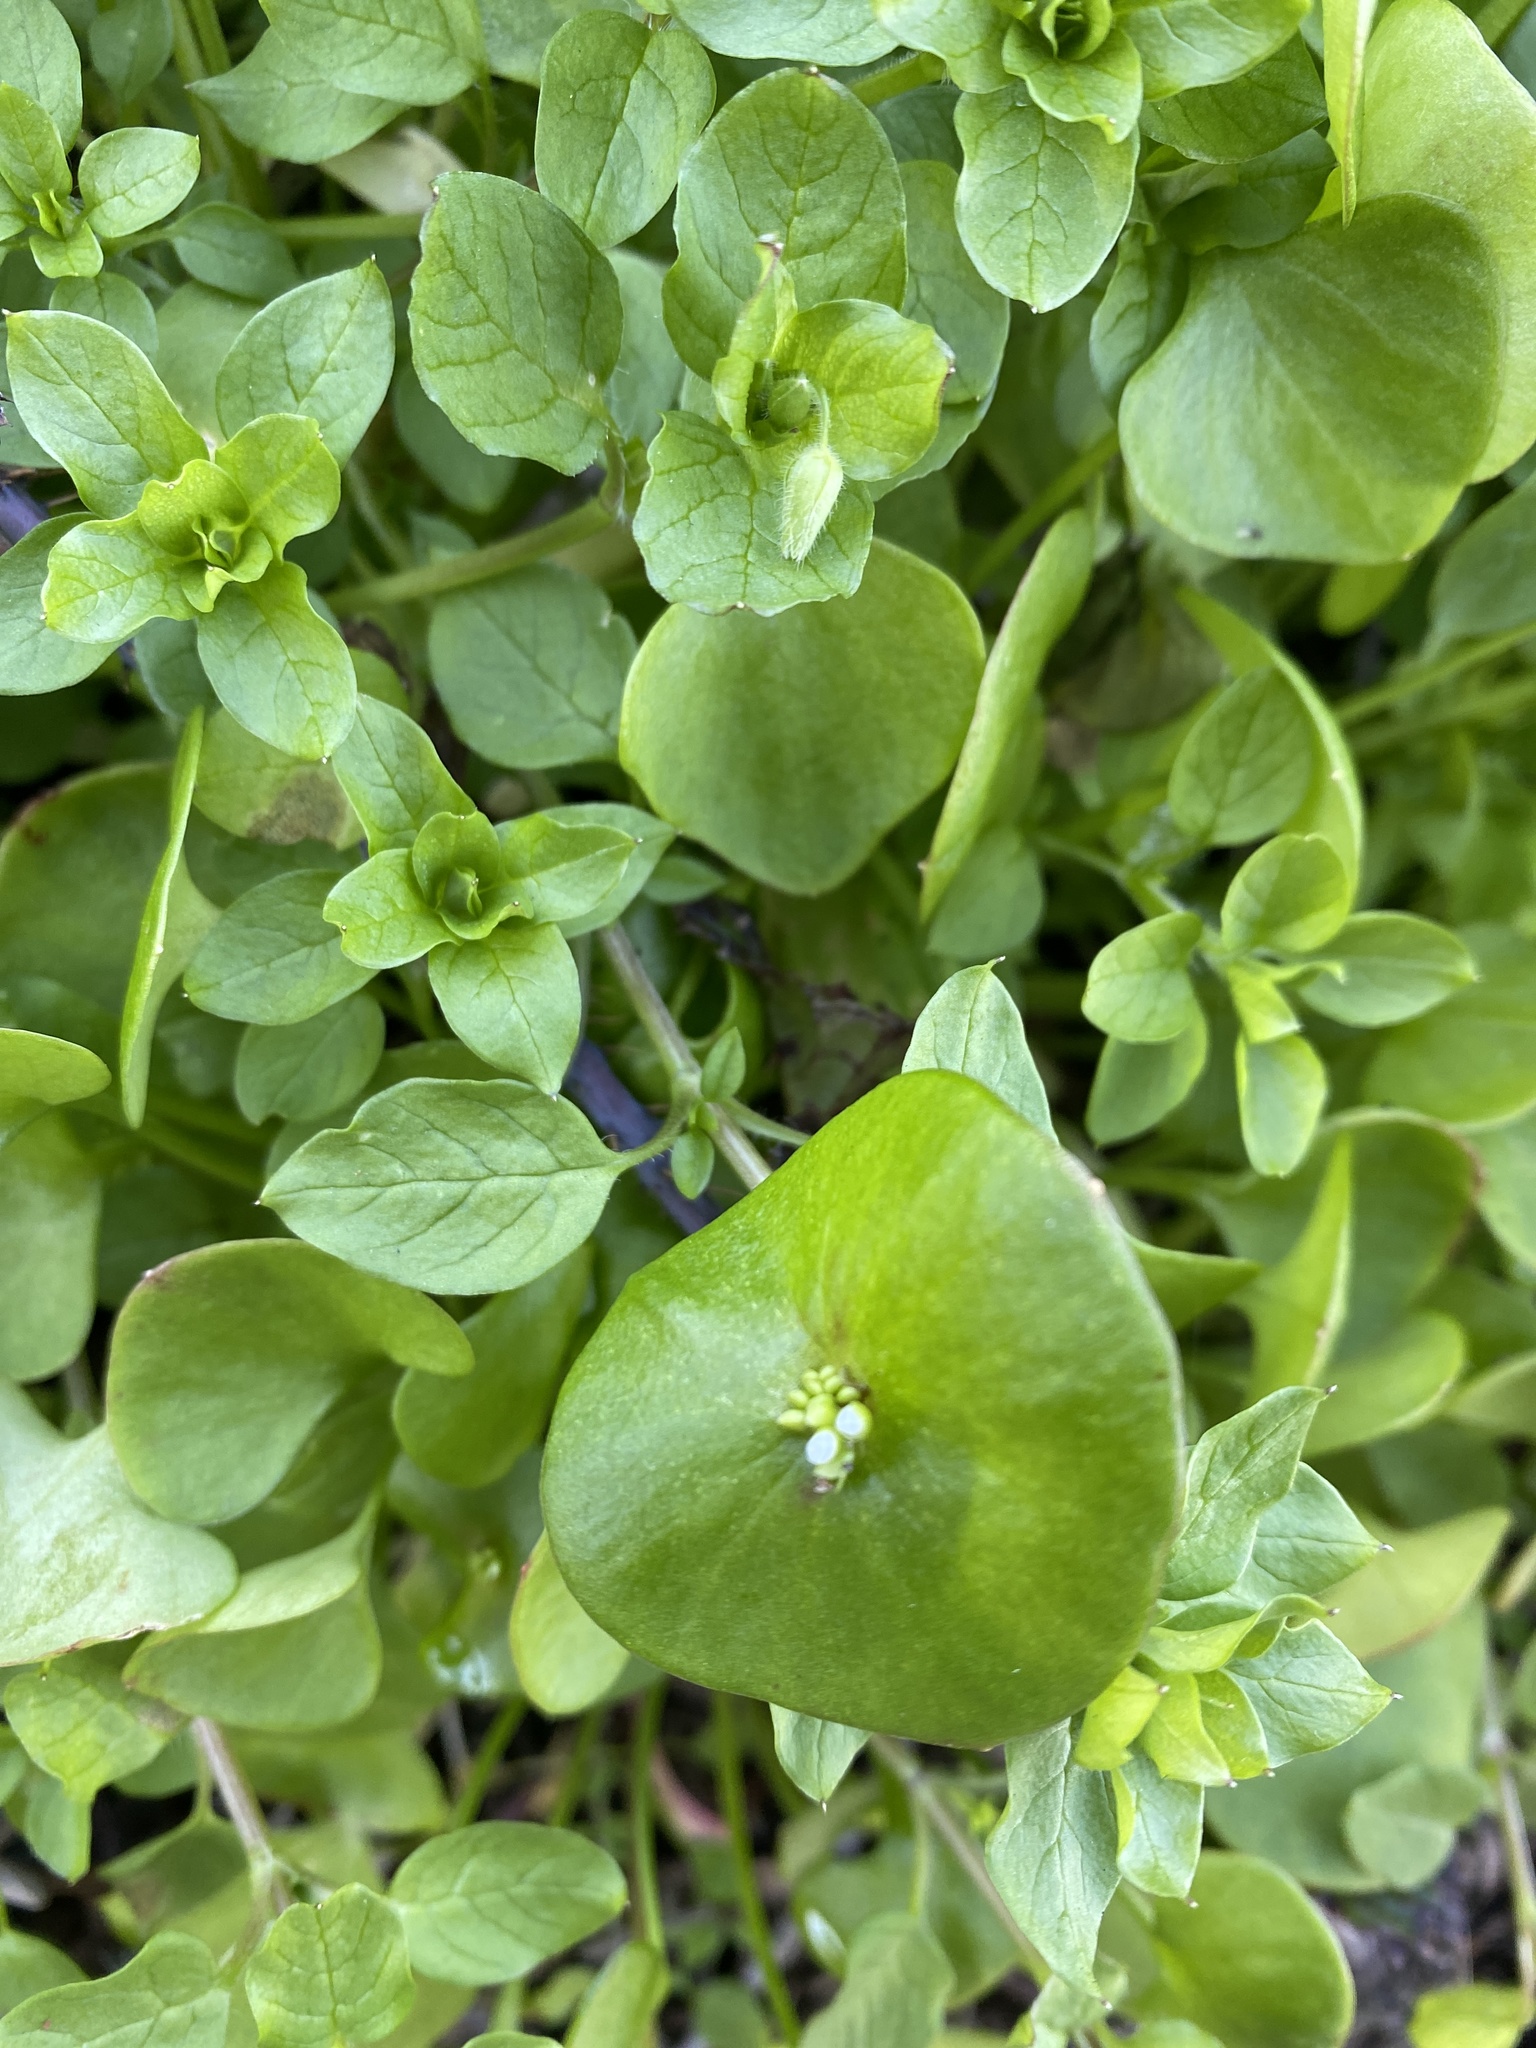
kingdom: Plantae
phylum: Tracheophyta
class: Magnoliopsida
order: Caryophyllales
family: Montiaceae
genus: Claytonia
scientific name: Claytonia perfoliata
